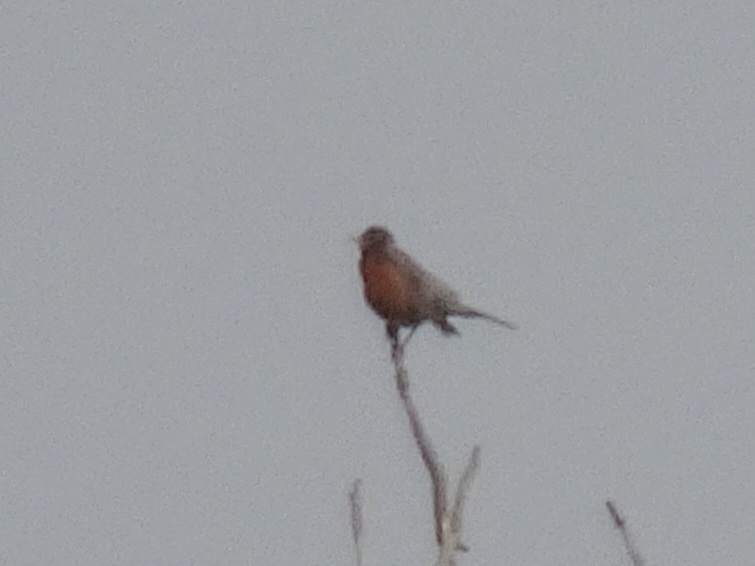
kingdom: Animalia
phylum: Chordata
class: Aves
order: Passeriformes
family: Turdidae
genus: Turdus
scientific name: Turdus migratorius
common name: American robin
